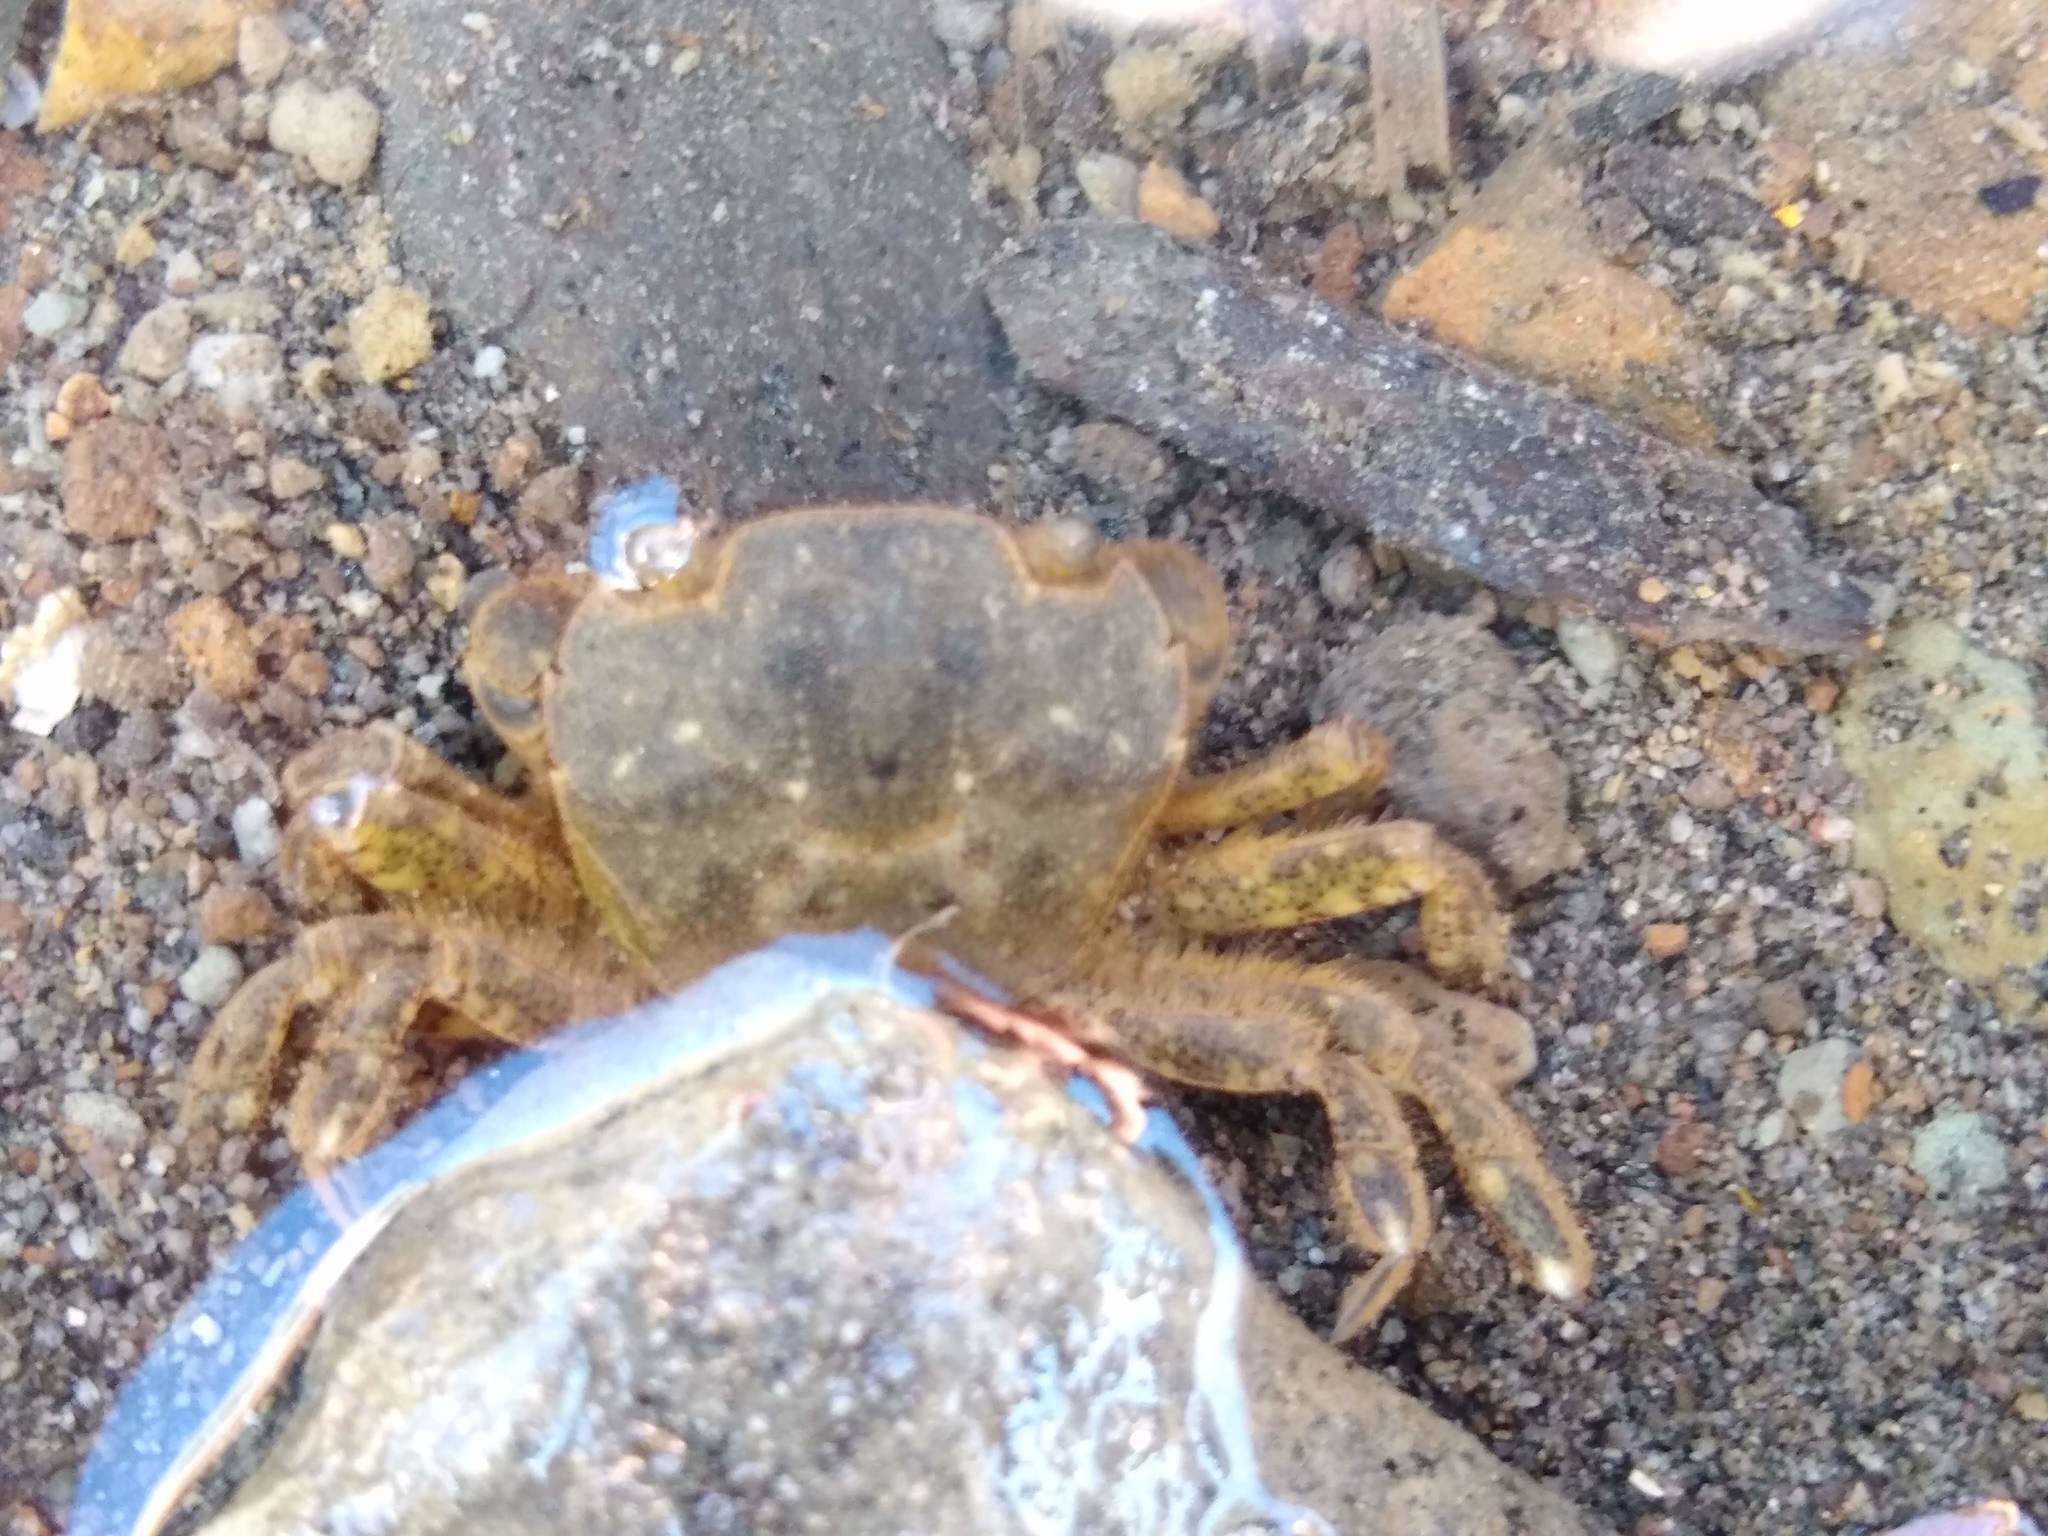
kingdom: Animalia
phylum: Arthropoda
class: Malacostraca
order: Decapoda
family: Varunidae
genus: Hemigrapsus
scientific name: Hemigrapsus crenulatus
